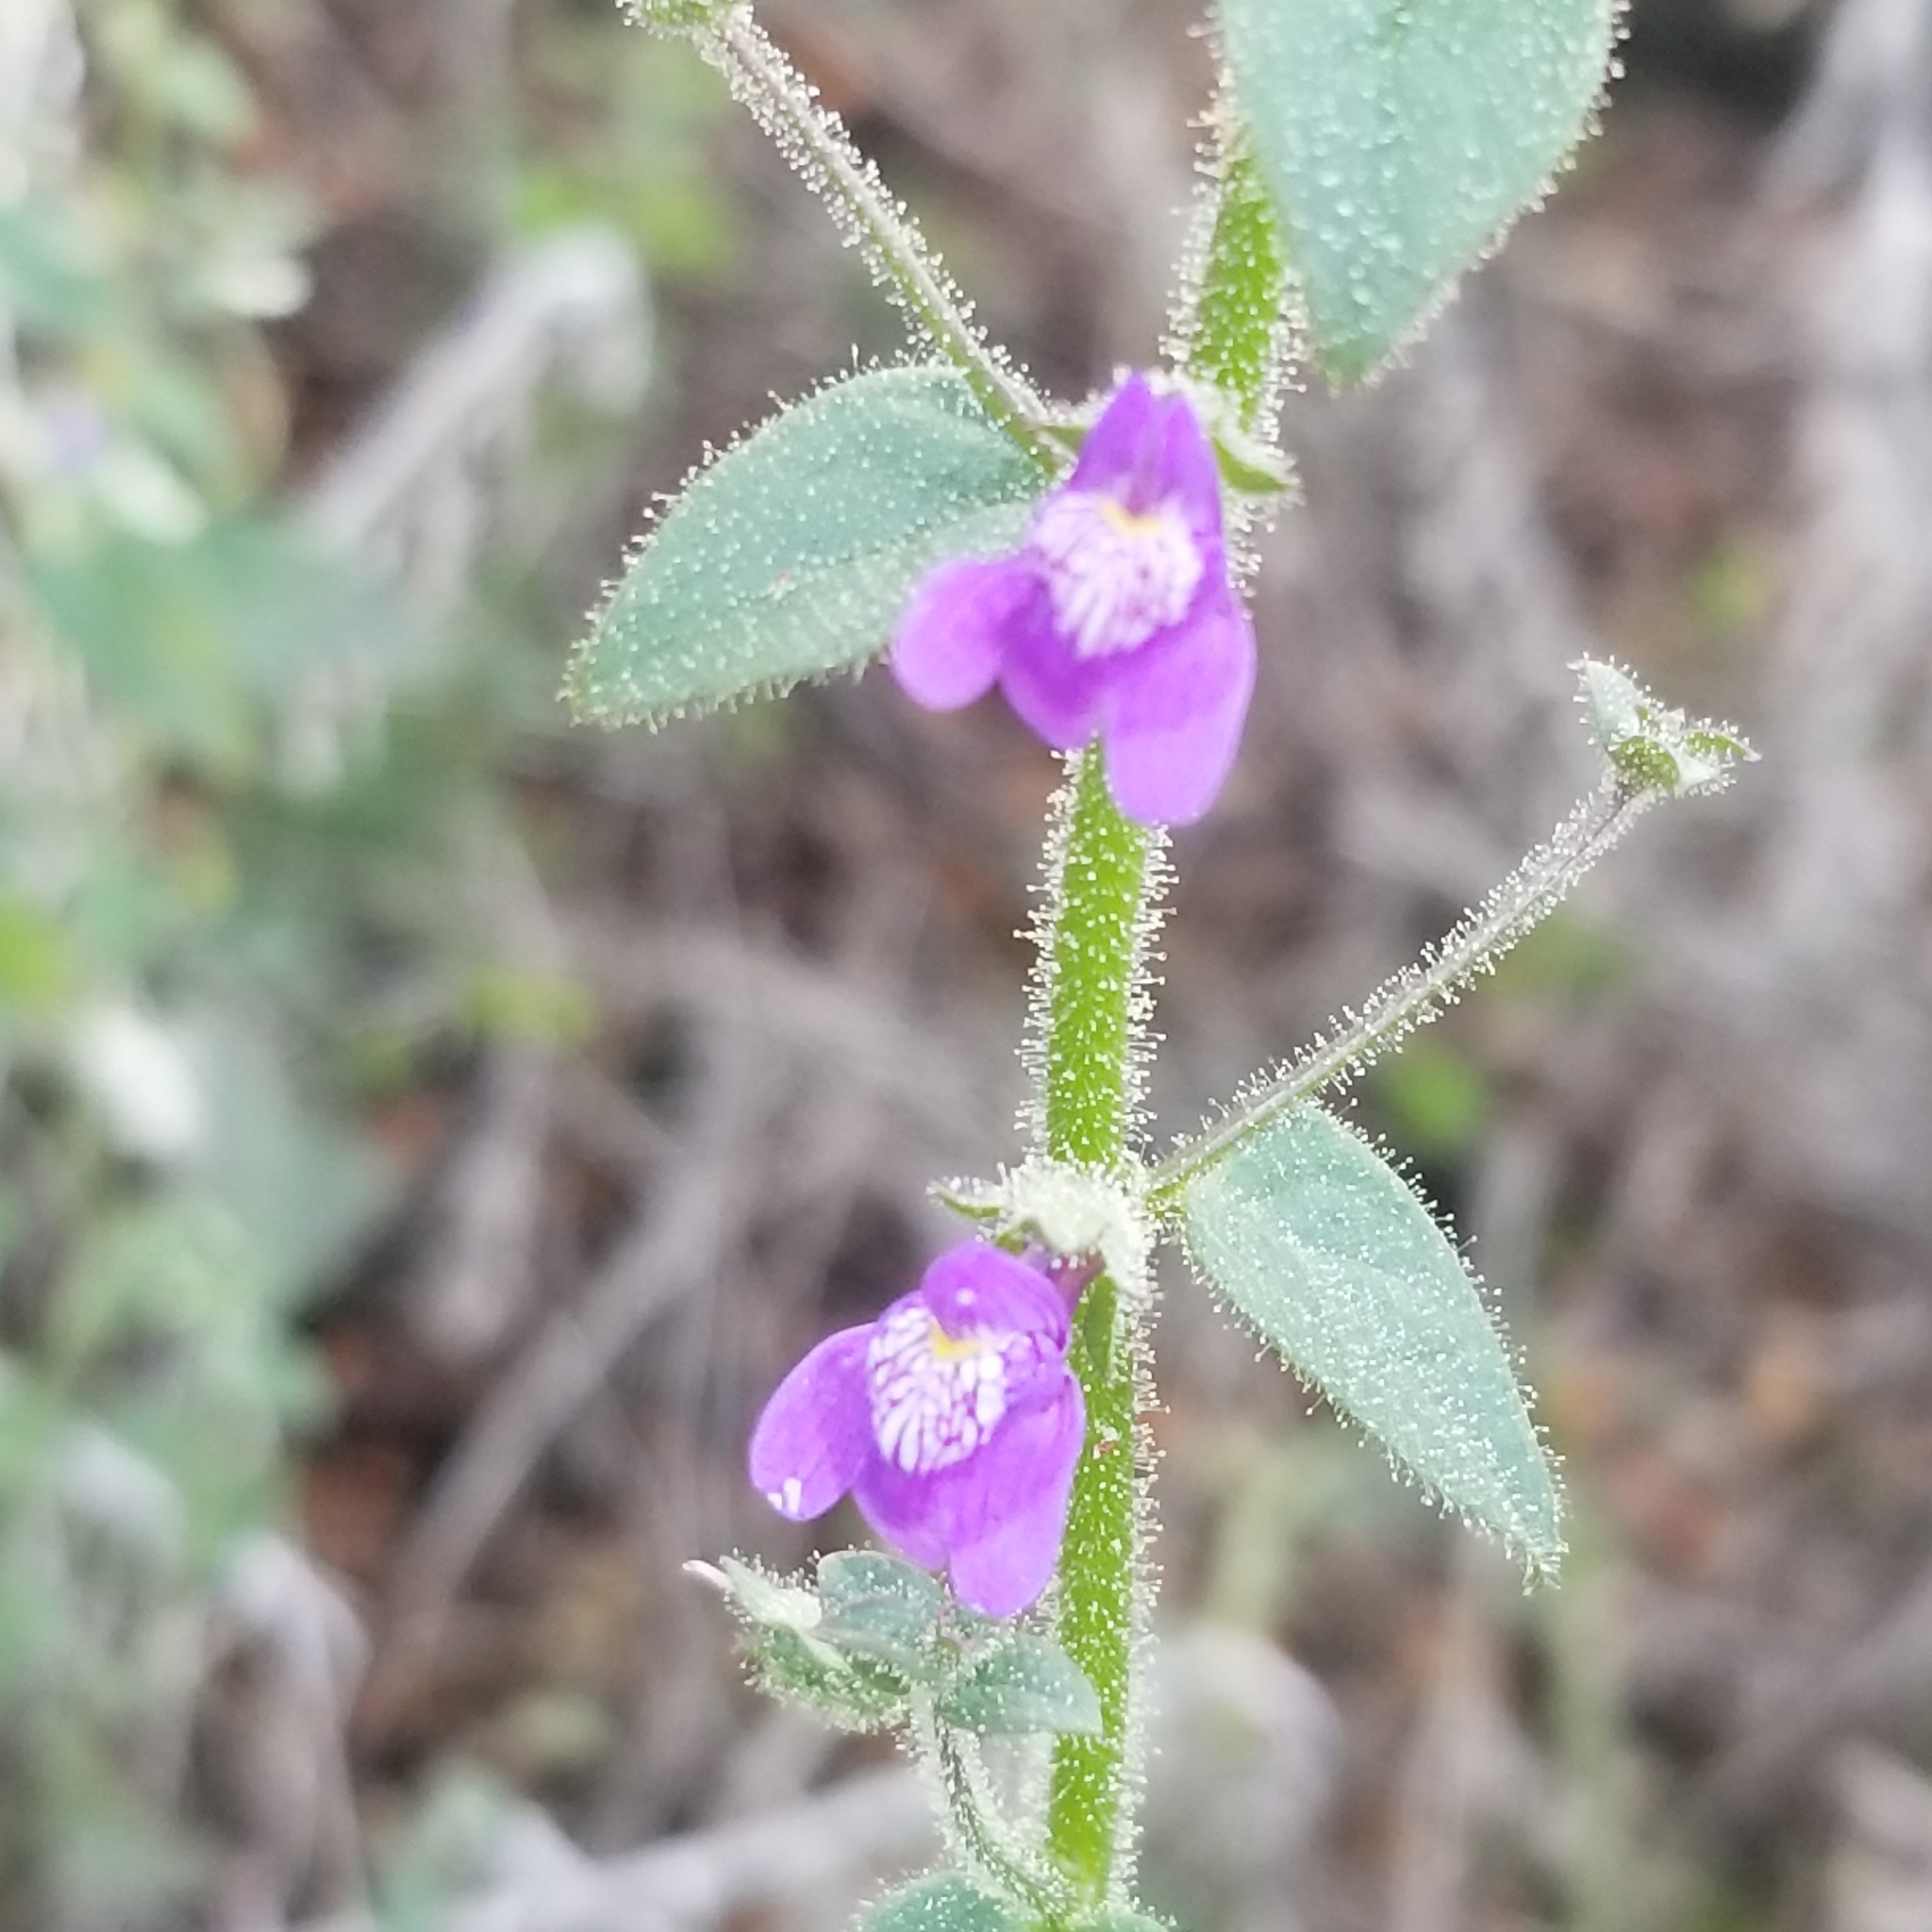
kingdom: Plantae
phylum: Tracheophyta
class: Magnoliopsida
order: Lamiales
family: Plantaginaceae
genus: Sairocarpus
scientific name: Sairocarpus nuttallianus
